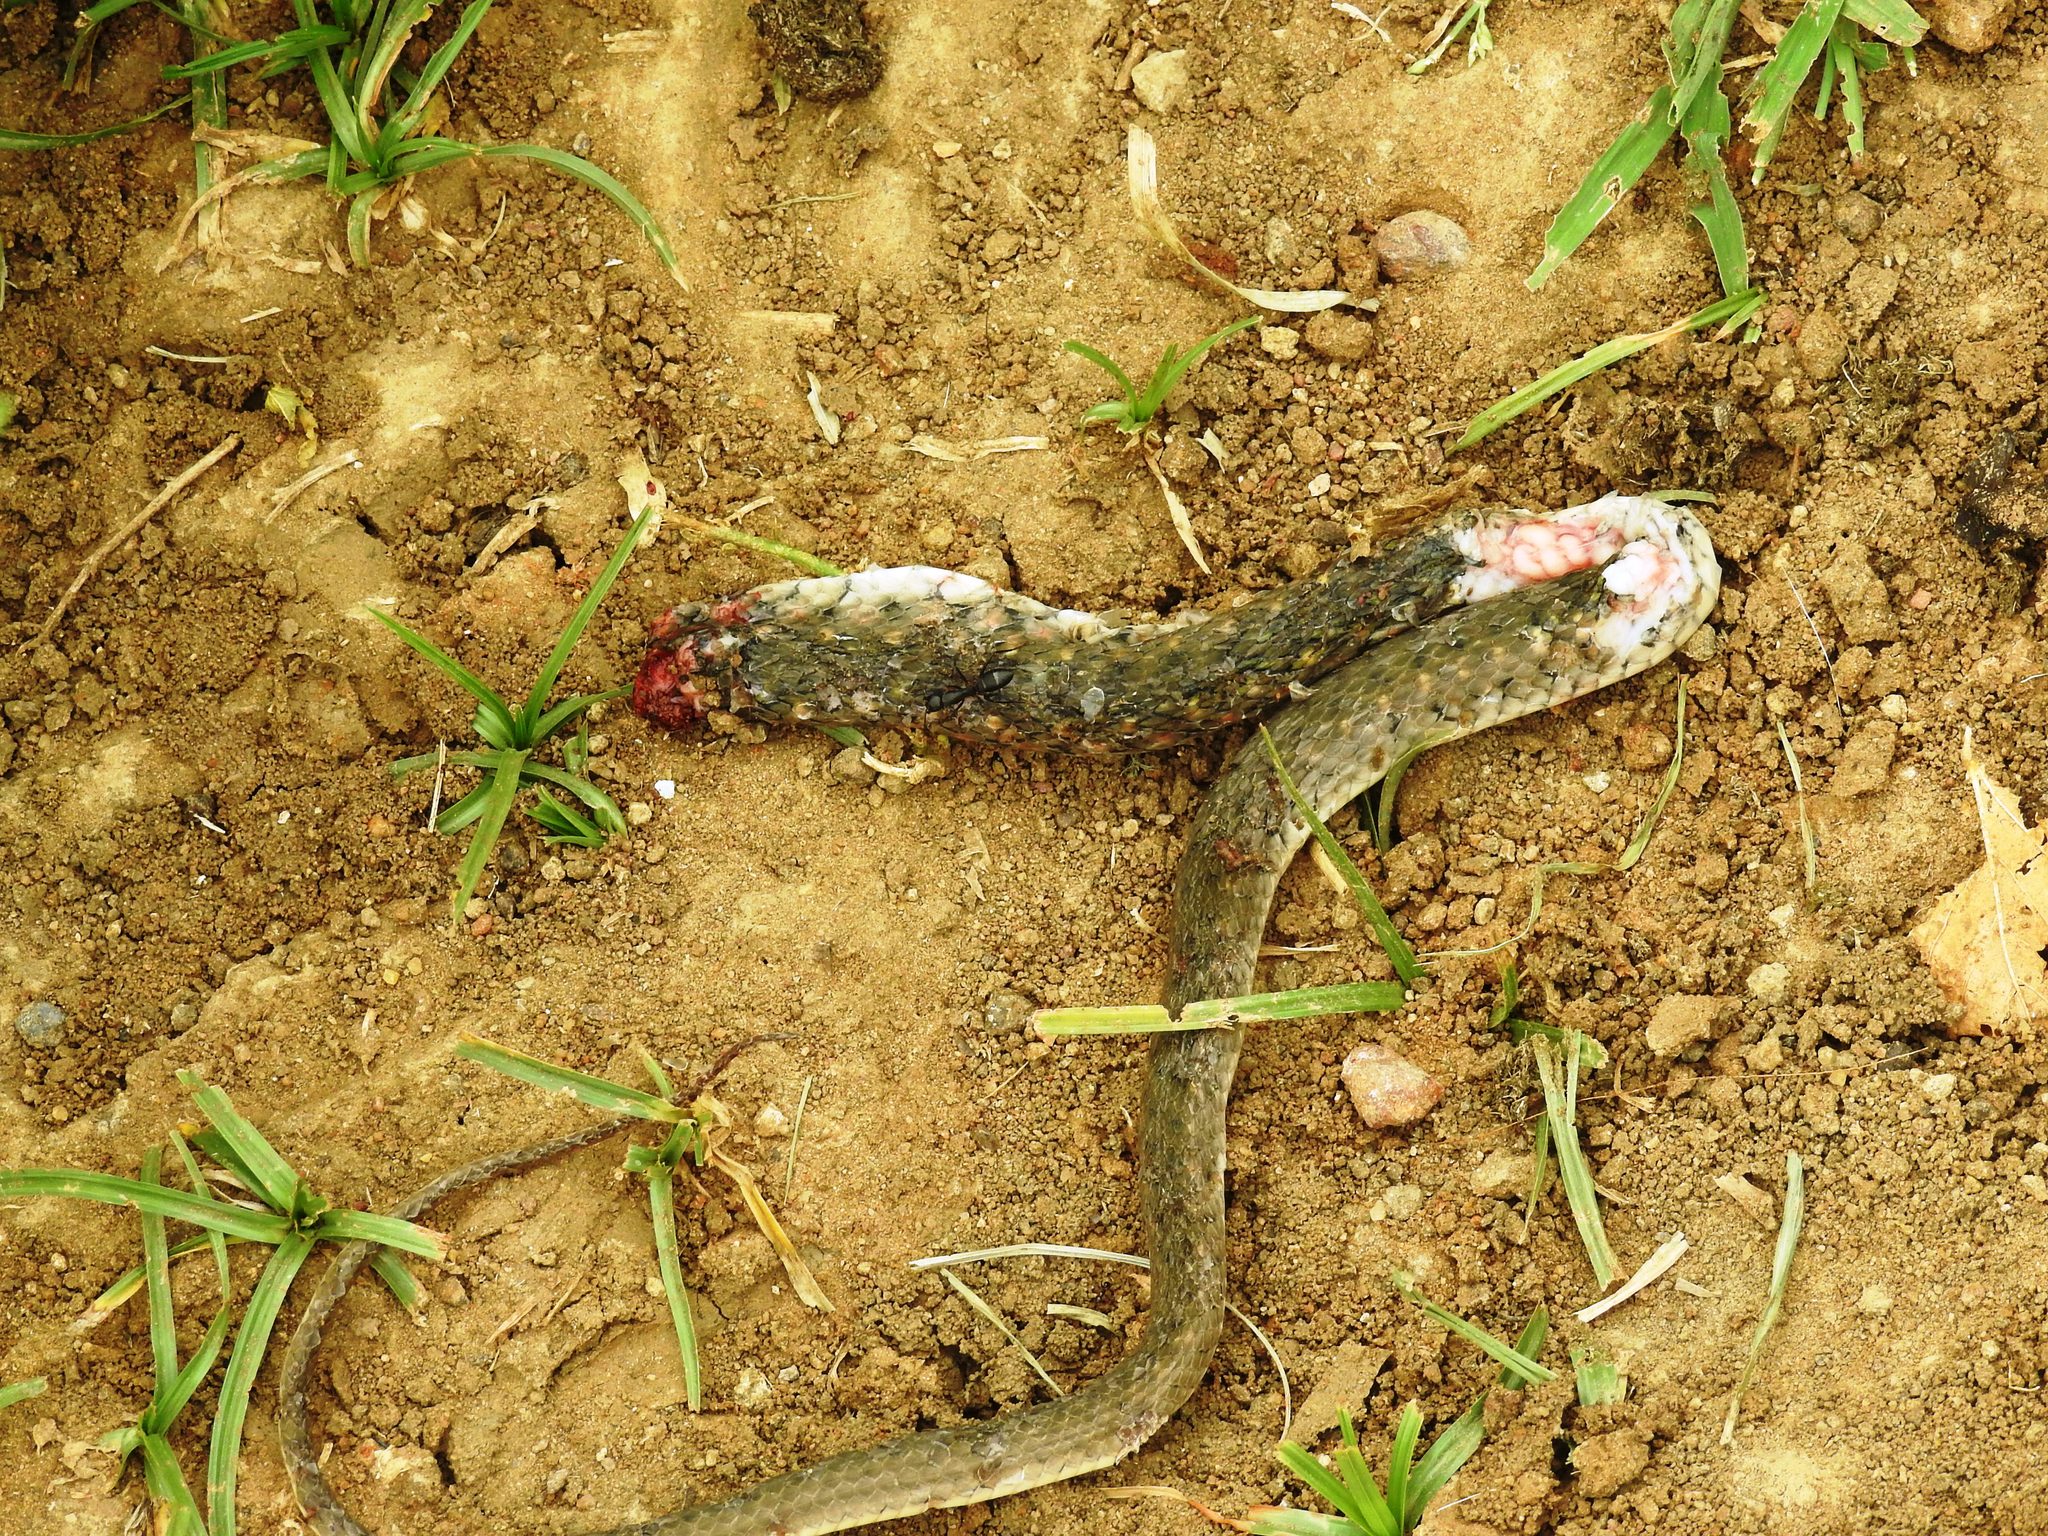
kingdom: Animalia
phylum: Chordata
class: Squamata
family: Colubridae
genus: Fowlea
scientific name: Fowlea piscator
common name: Asiatic water snake
